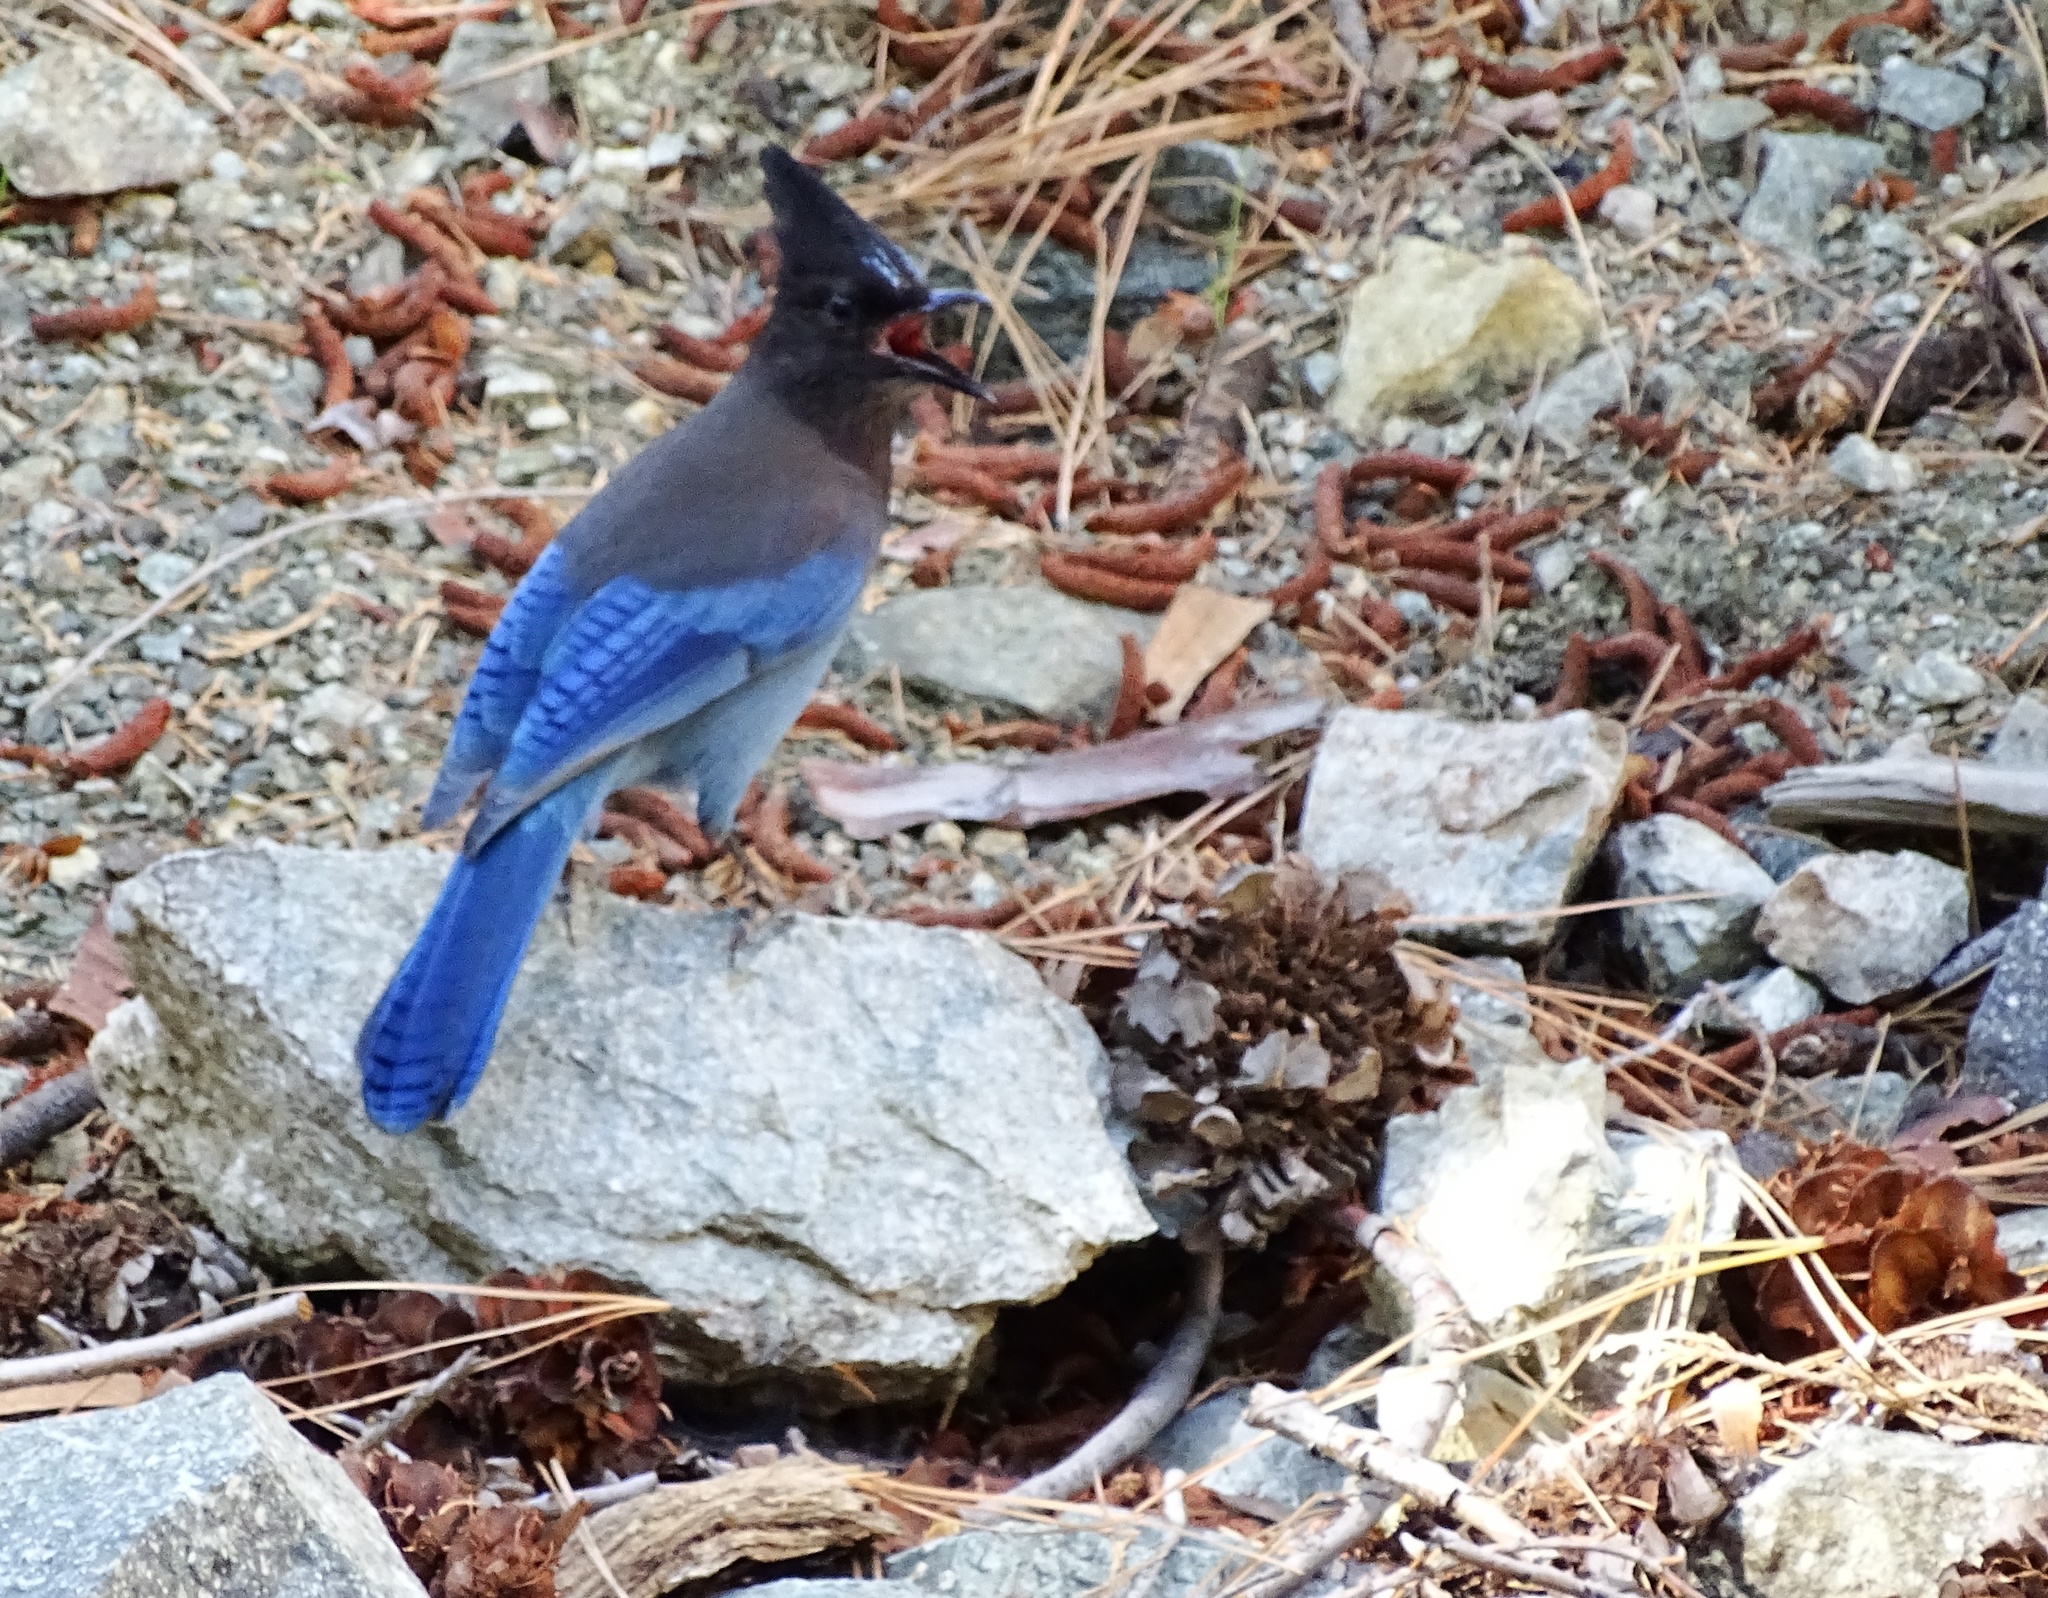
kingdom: Animalia
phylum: Chordata
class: Aves
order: Passeriformes
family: Corvidae
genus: Cyanocitta
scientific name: Cyanocitta stelleri
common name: Steller's jay
